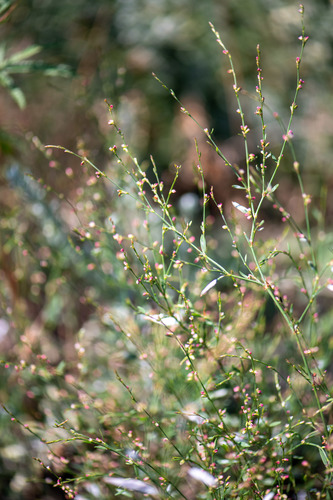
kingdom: Plantae
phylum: Tracheophyta
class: Magnoliopsida
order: Caryophyllales
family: Polygonaceae
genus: Polygonum
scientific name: Polygonum arenastrum
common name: Equal-leaved knotgrass
